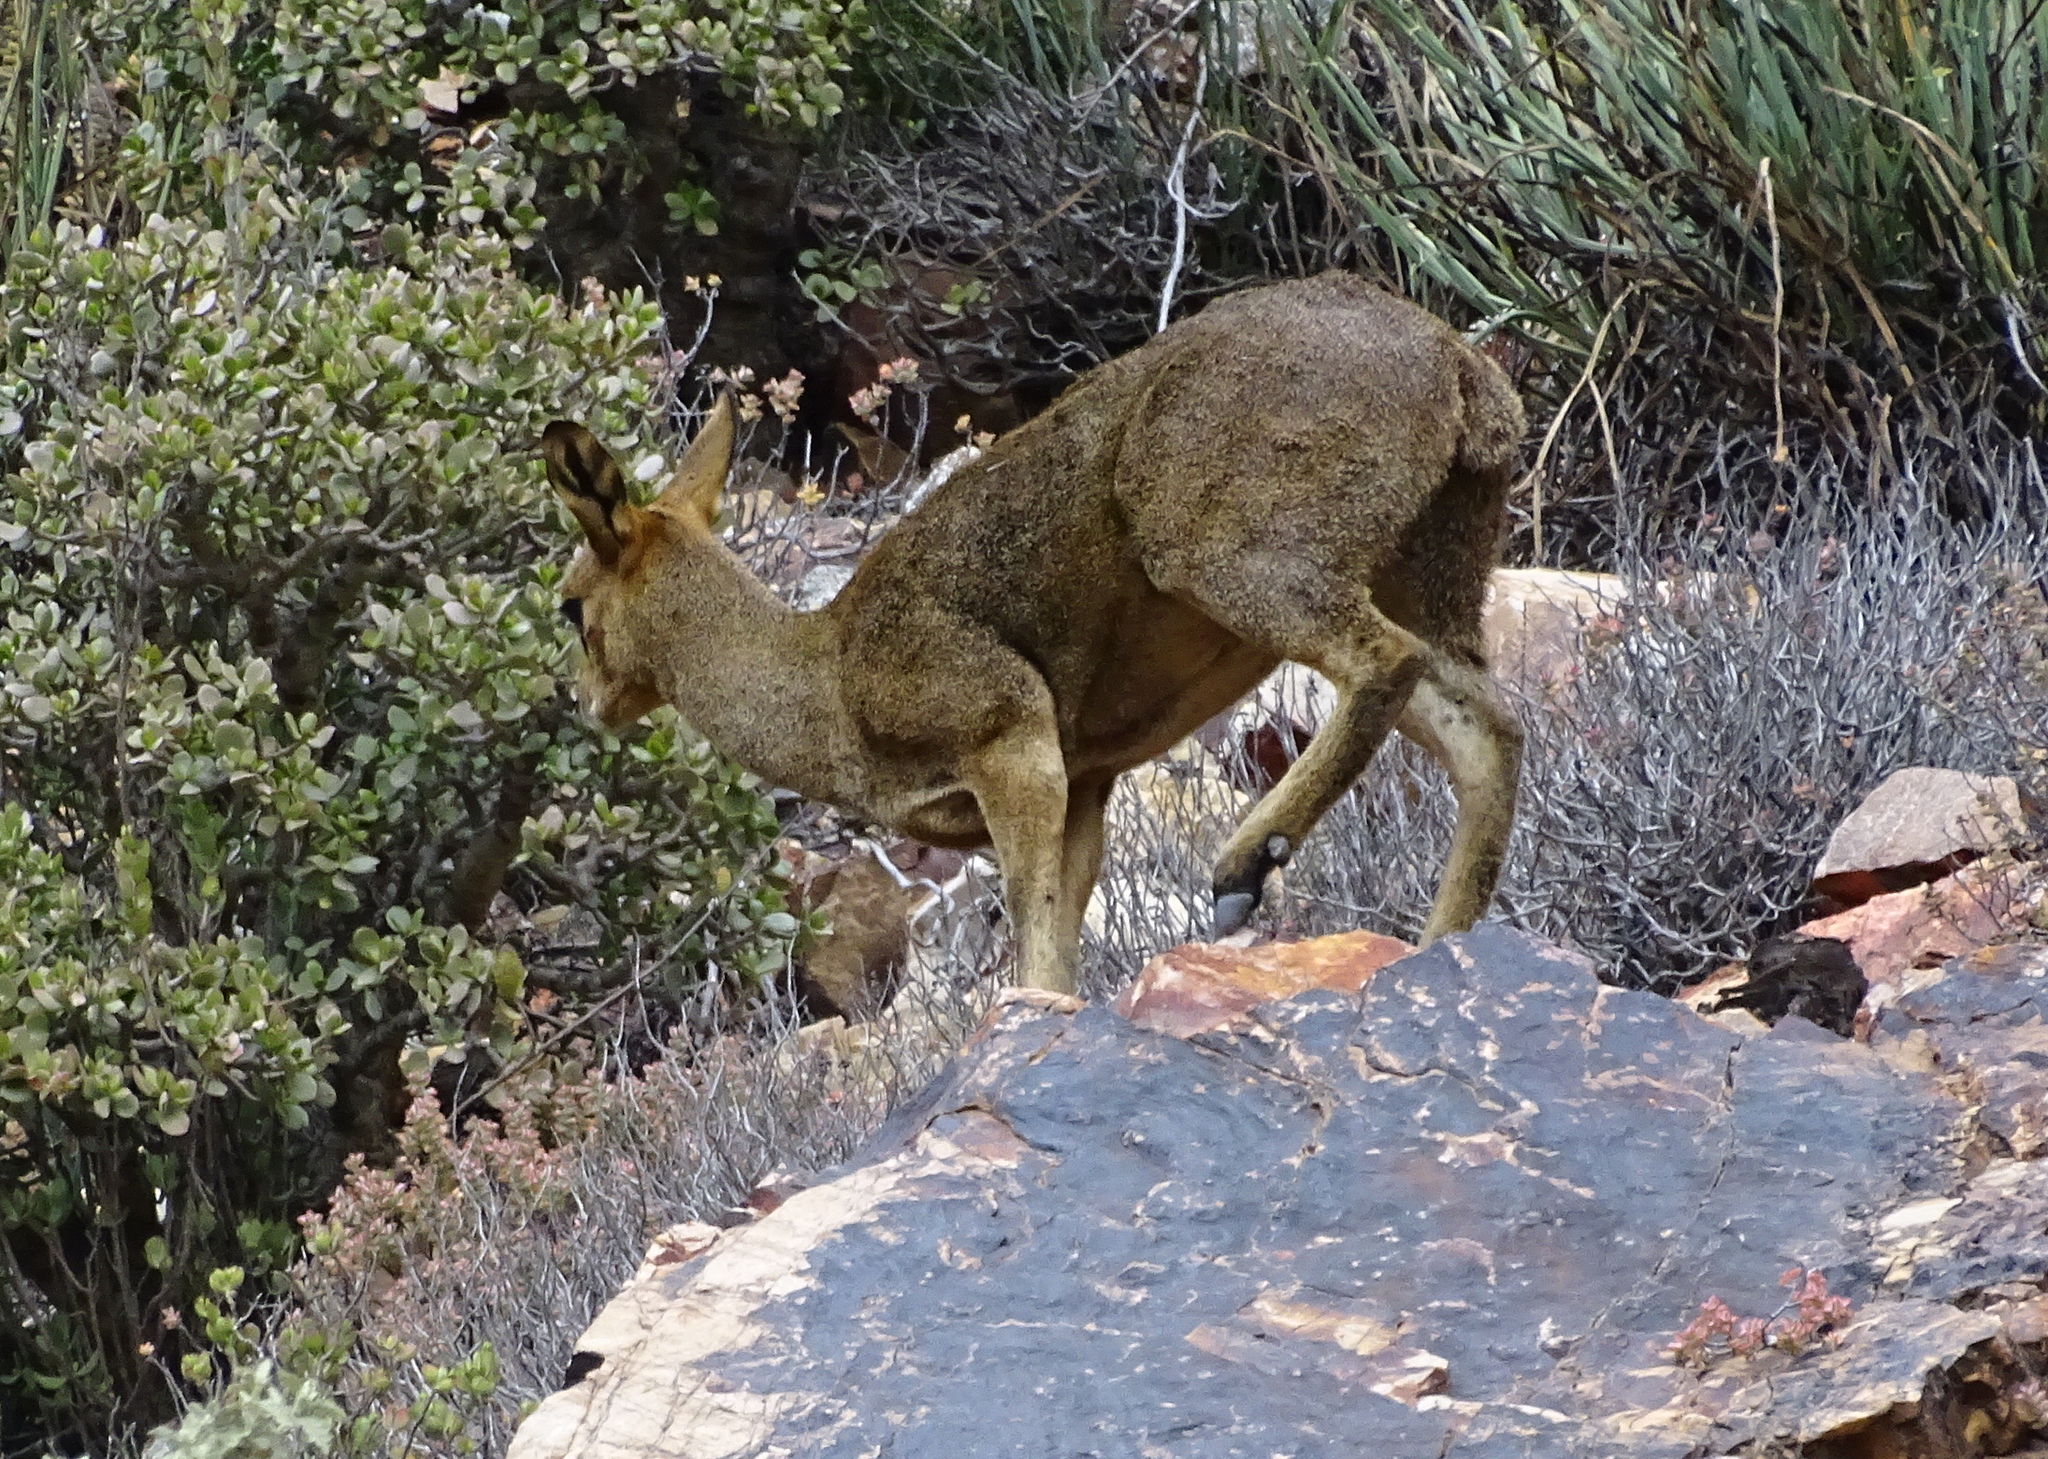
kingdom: Animalia
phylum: Chordata
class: Mammalia
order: Artiodactyla
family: Bovidae
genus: Oreotragus
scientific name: Oreotragus oreotragus
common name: Klipspringer
